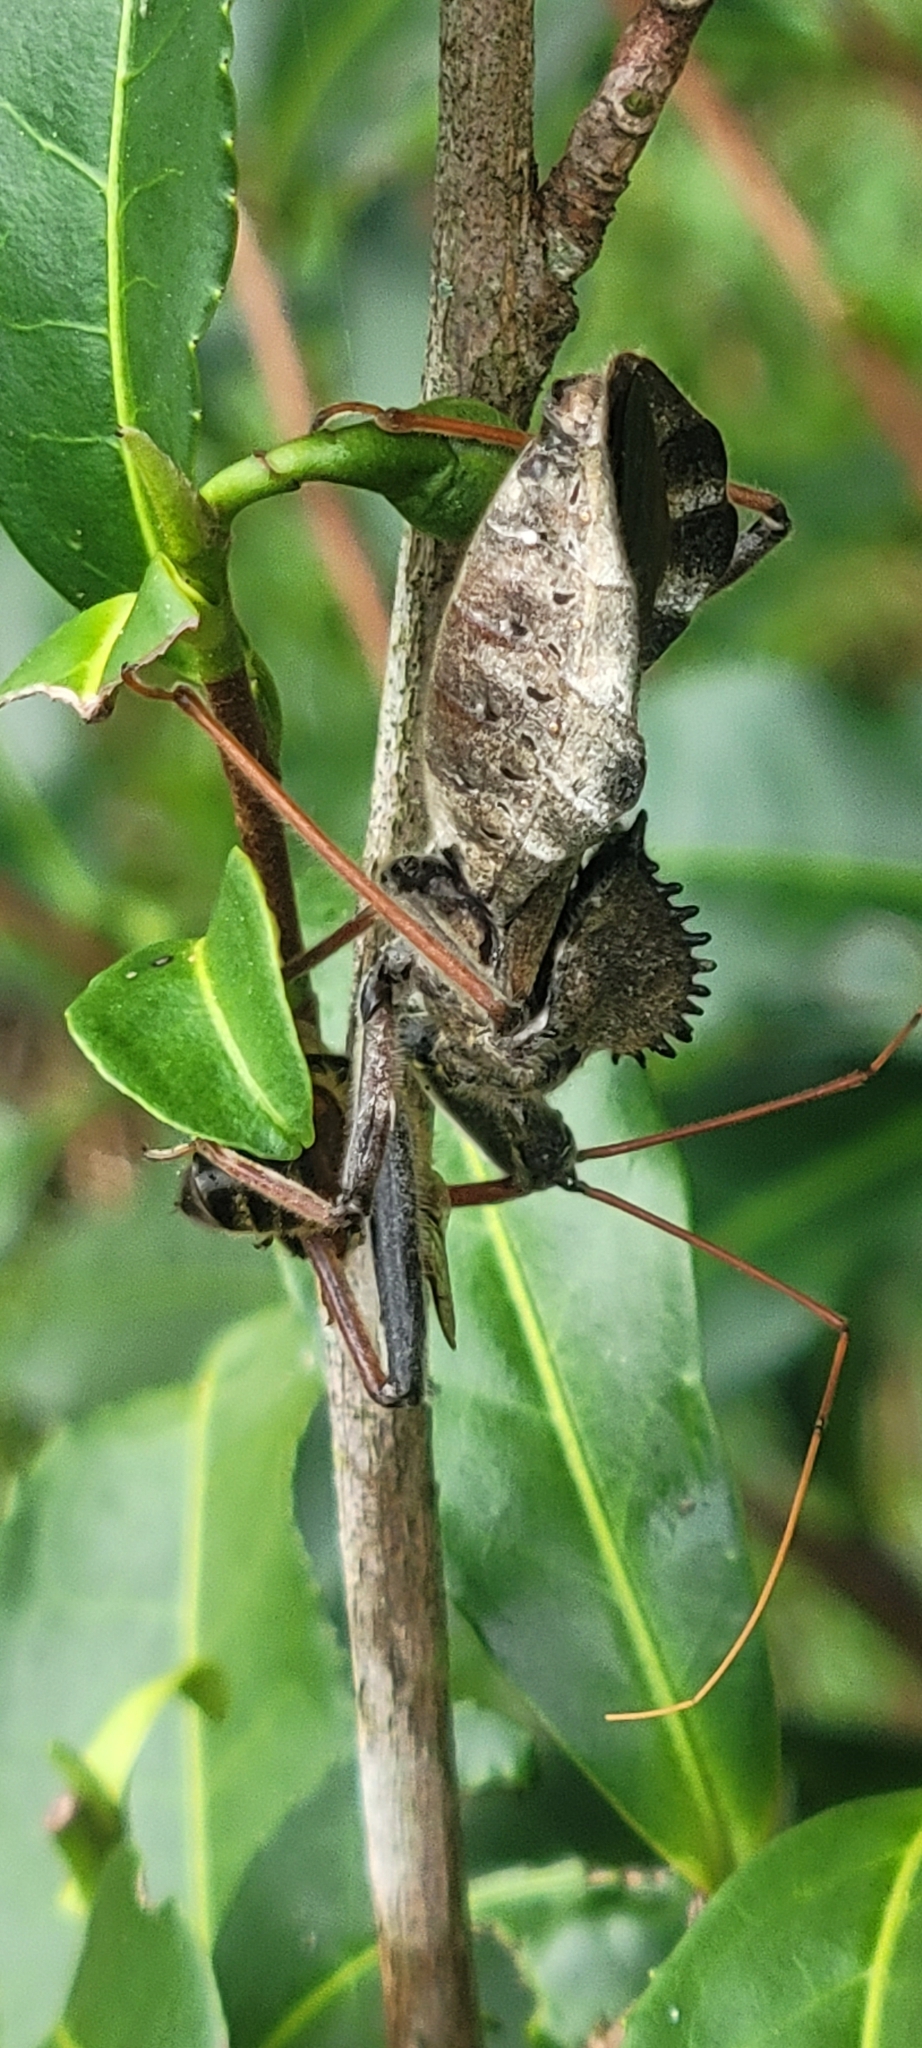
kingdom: Animalia
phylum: Arthropoda
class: Insecta
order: Hemiptera
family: Reduviidae
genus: Arilus
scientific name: Arilus cristatus
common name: North american wheel bug
